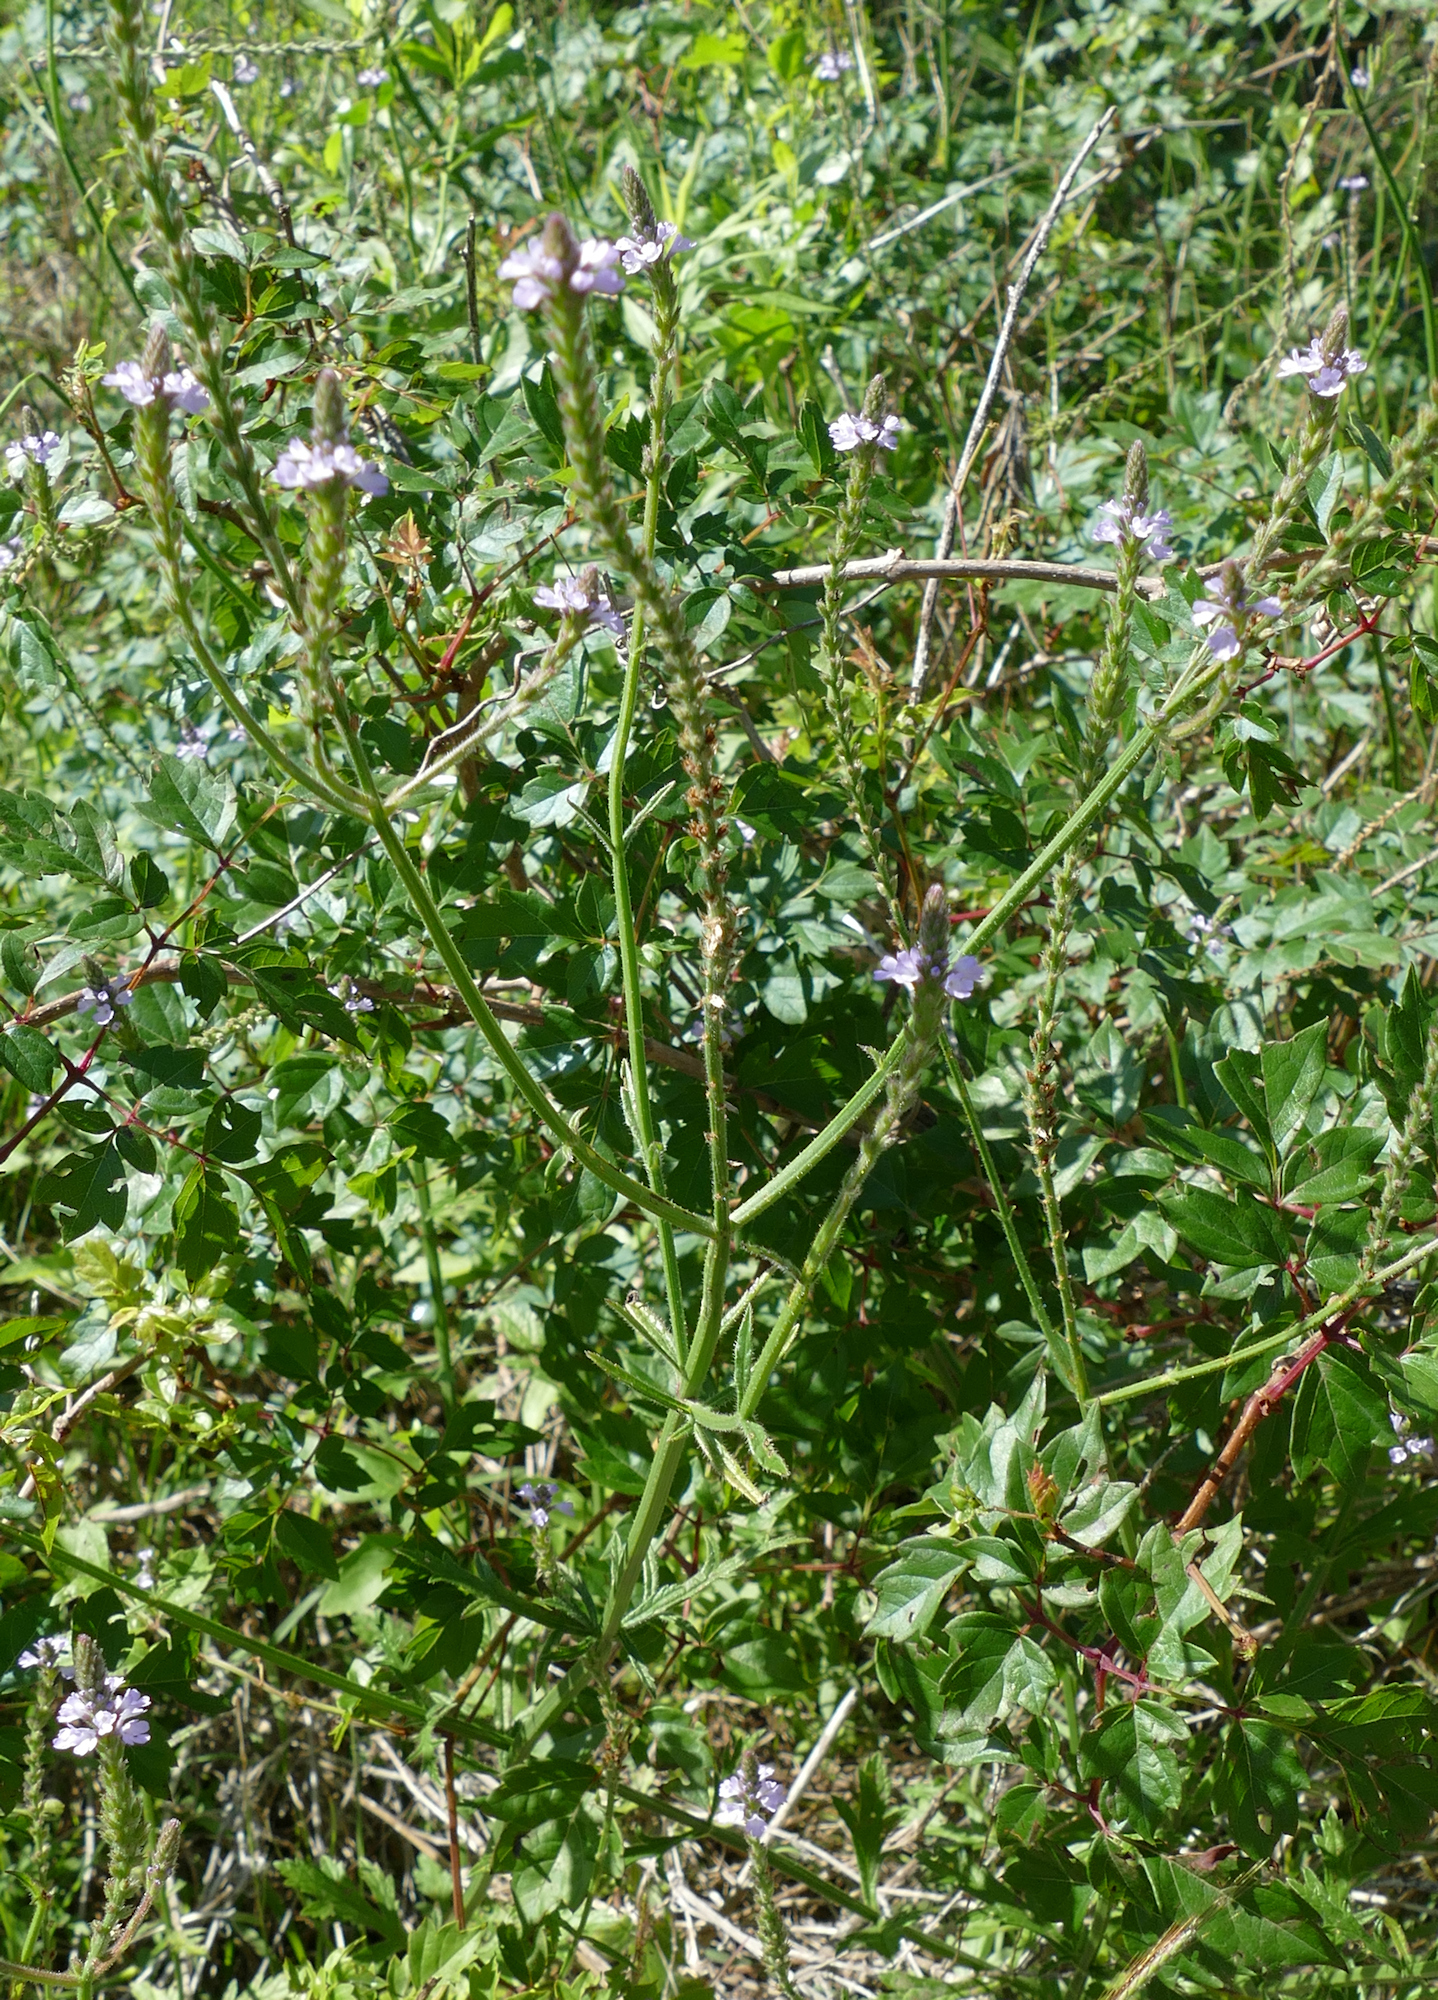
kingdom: Plantae
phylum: Tracheophyta
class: Magnoliopsida
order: Lamiales
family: Verbenaceae
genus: Verbena
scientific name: Verbena xutha
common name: Gulf vervain
